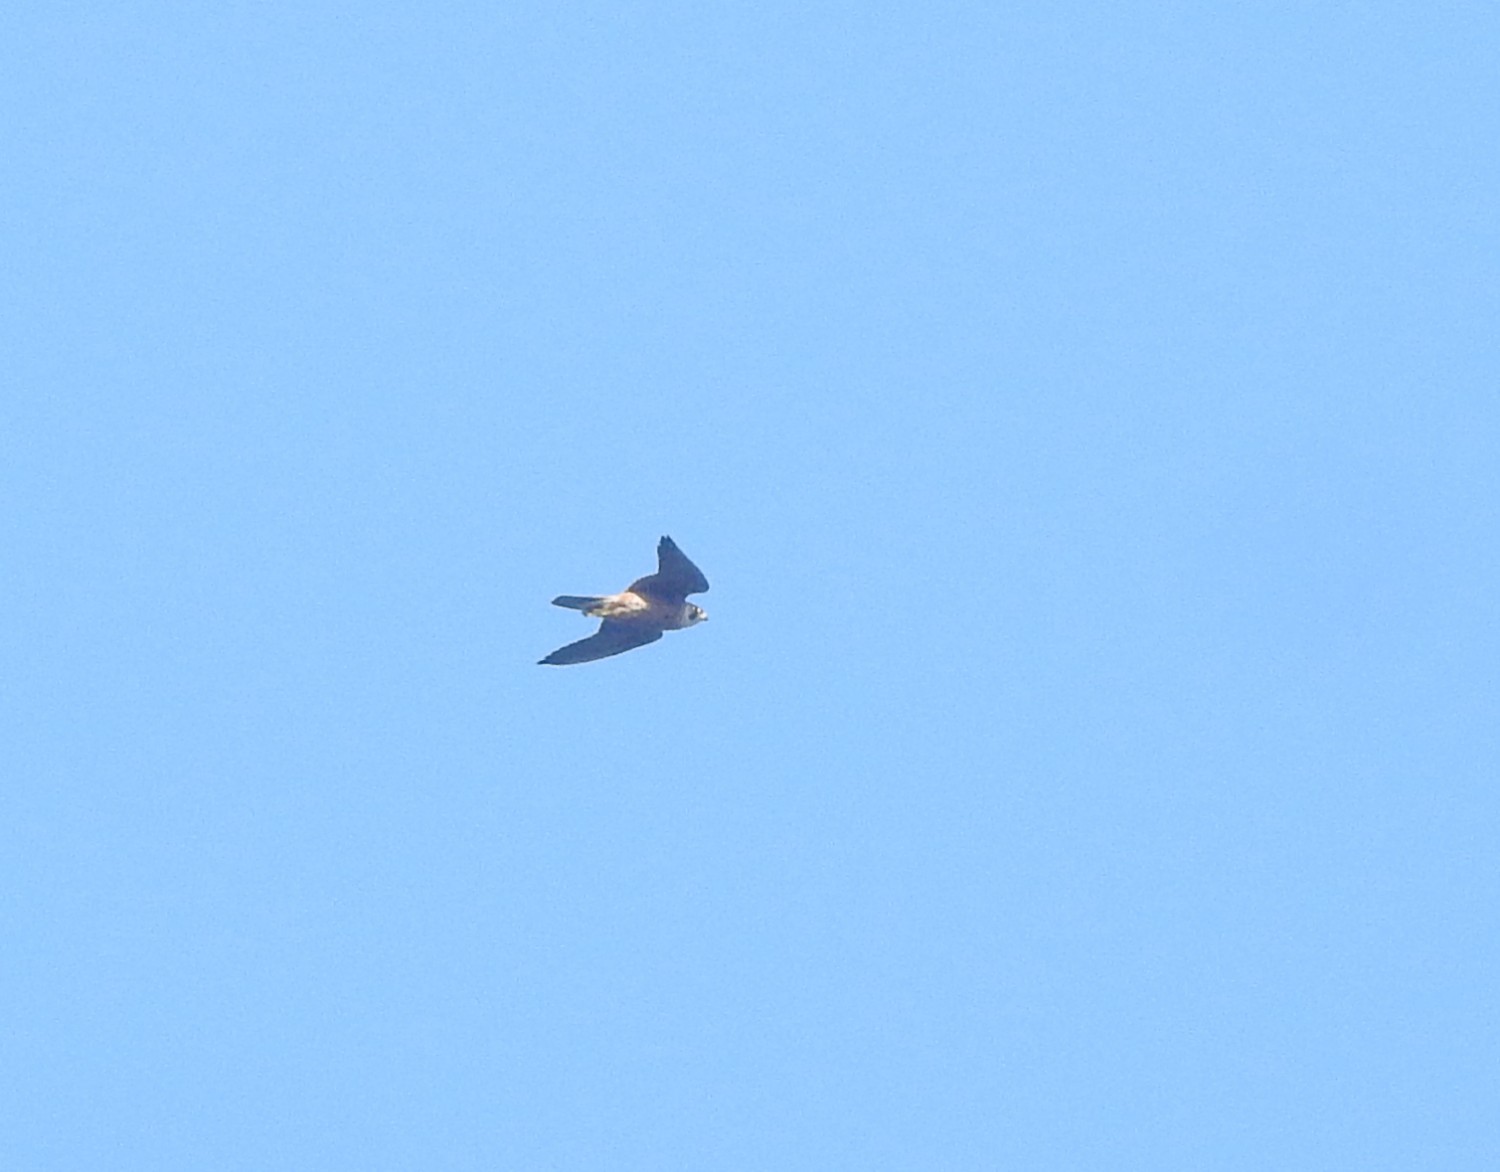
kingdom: Animalia
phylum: Chordata
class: Aves
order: Falconiformes
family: Falconidae
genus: Falco
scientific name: Falco peregrinus
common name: Peregrine falcon
